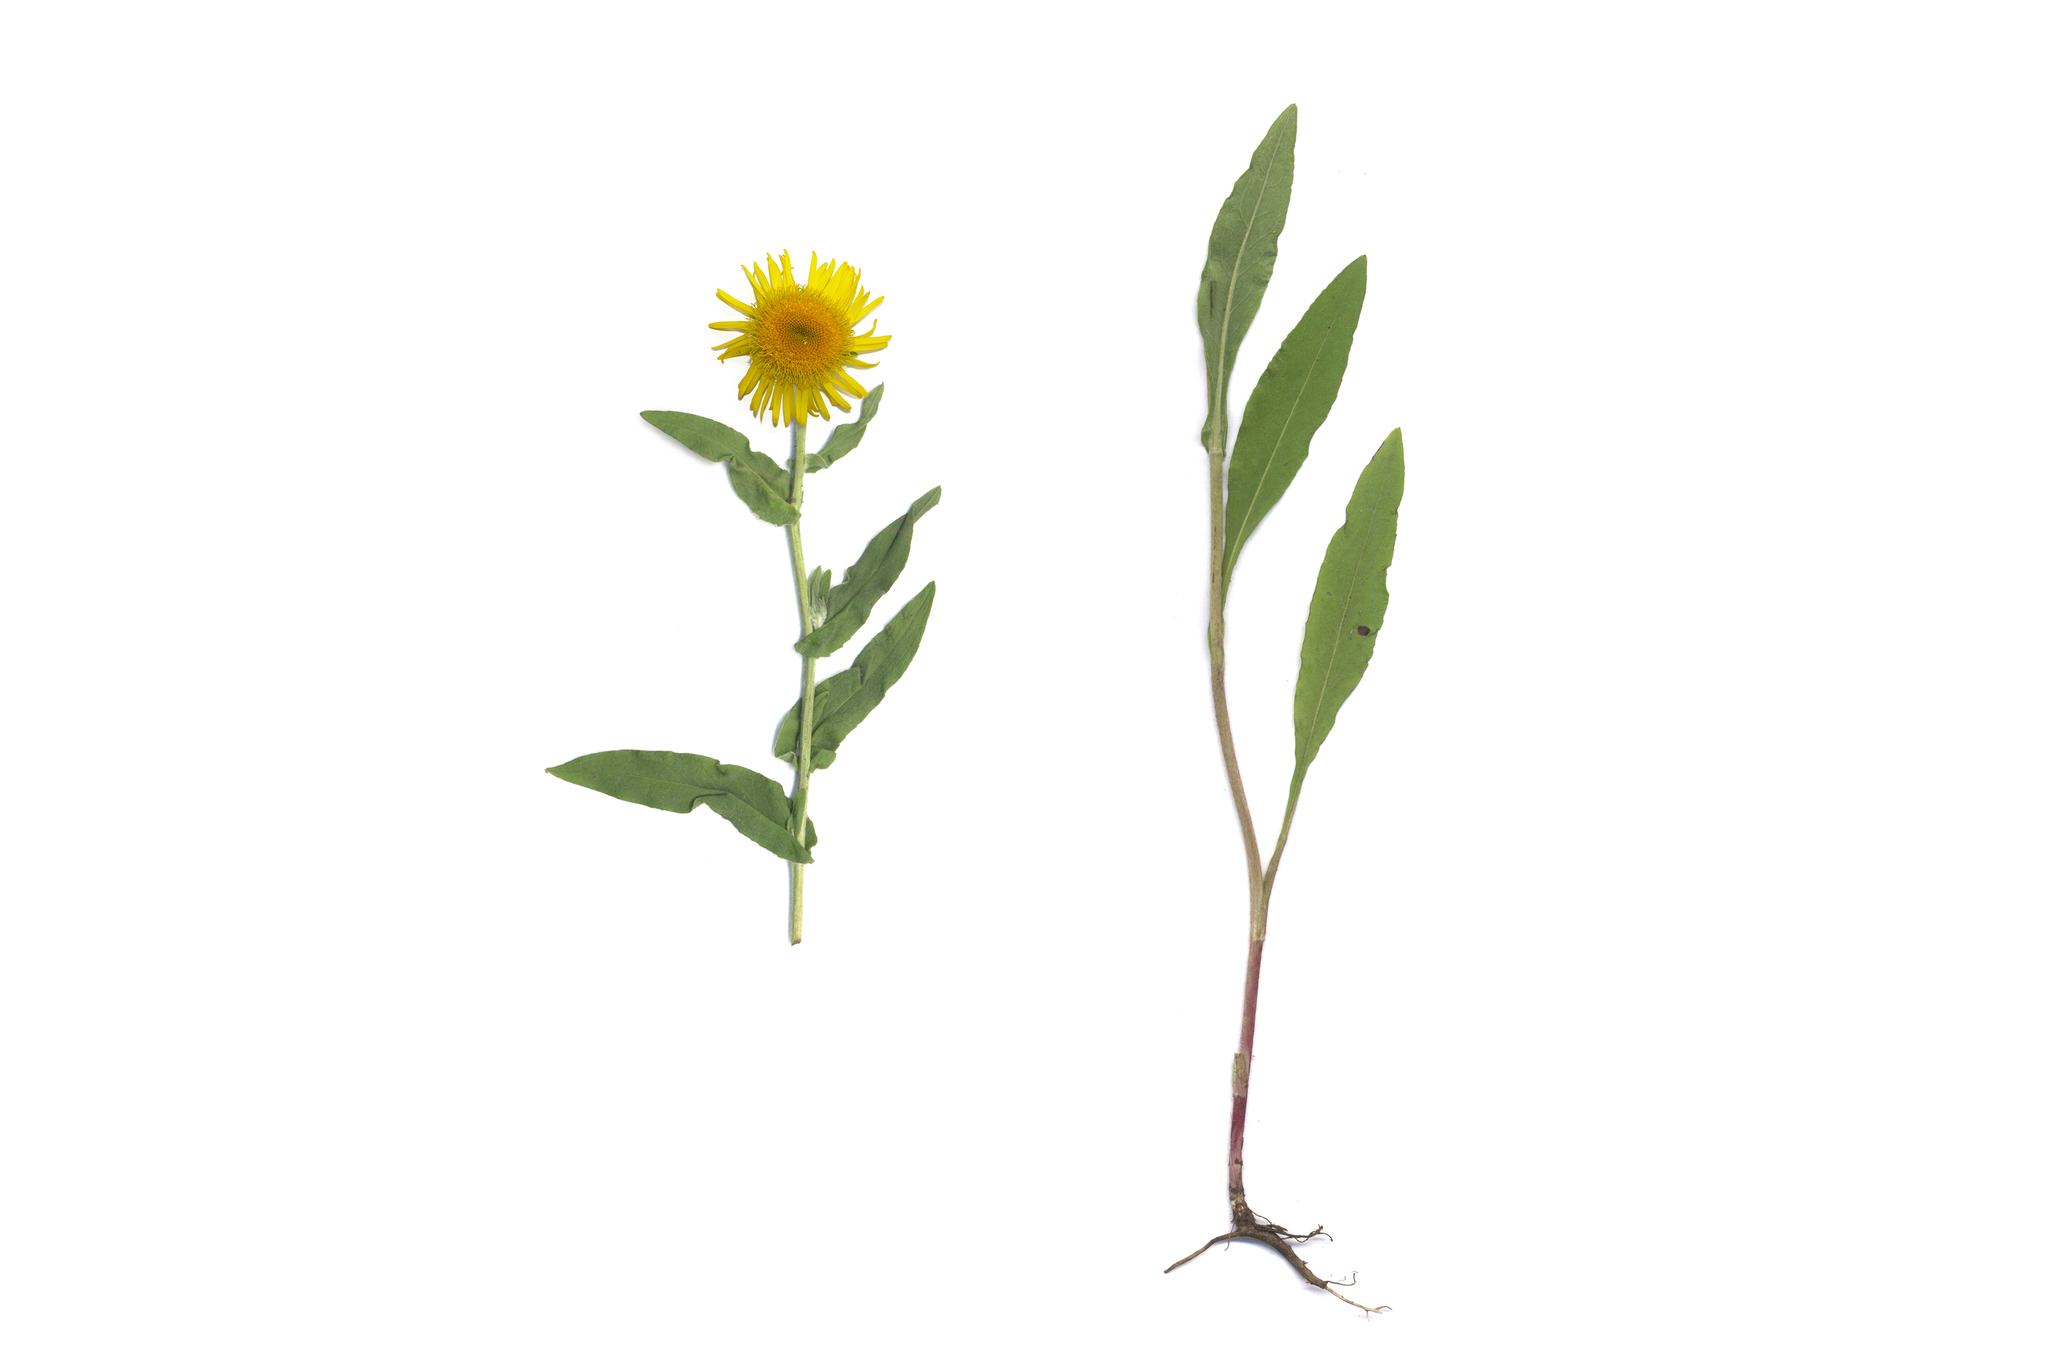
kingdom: Plantae
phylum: Tracheophyta
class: Magnoliopsida
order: Asterales
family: Asteraceae
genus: Pentanema
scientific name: Pentanema britannicum
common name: British elecampane
